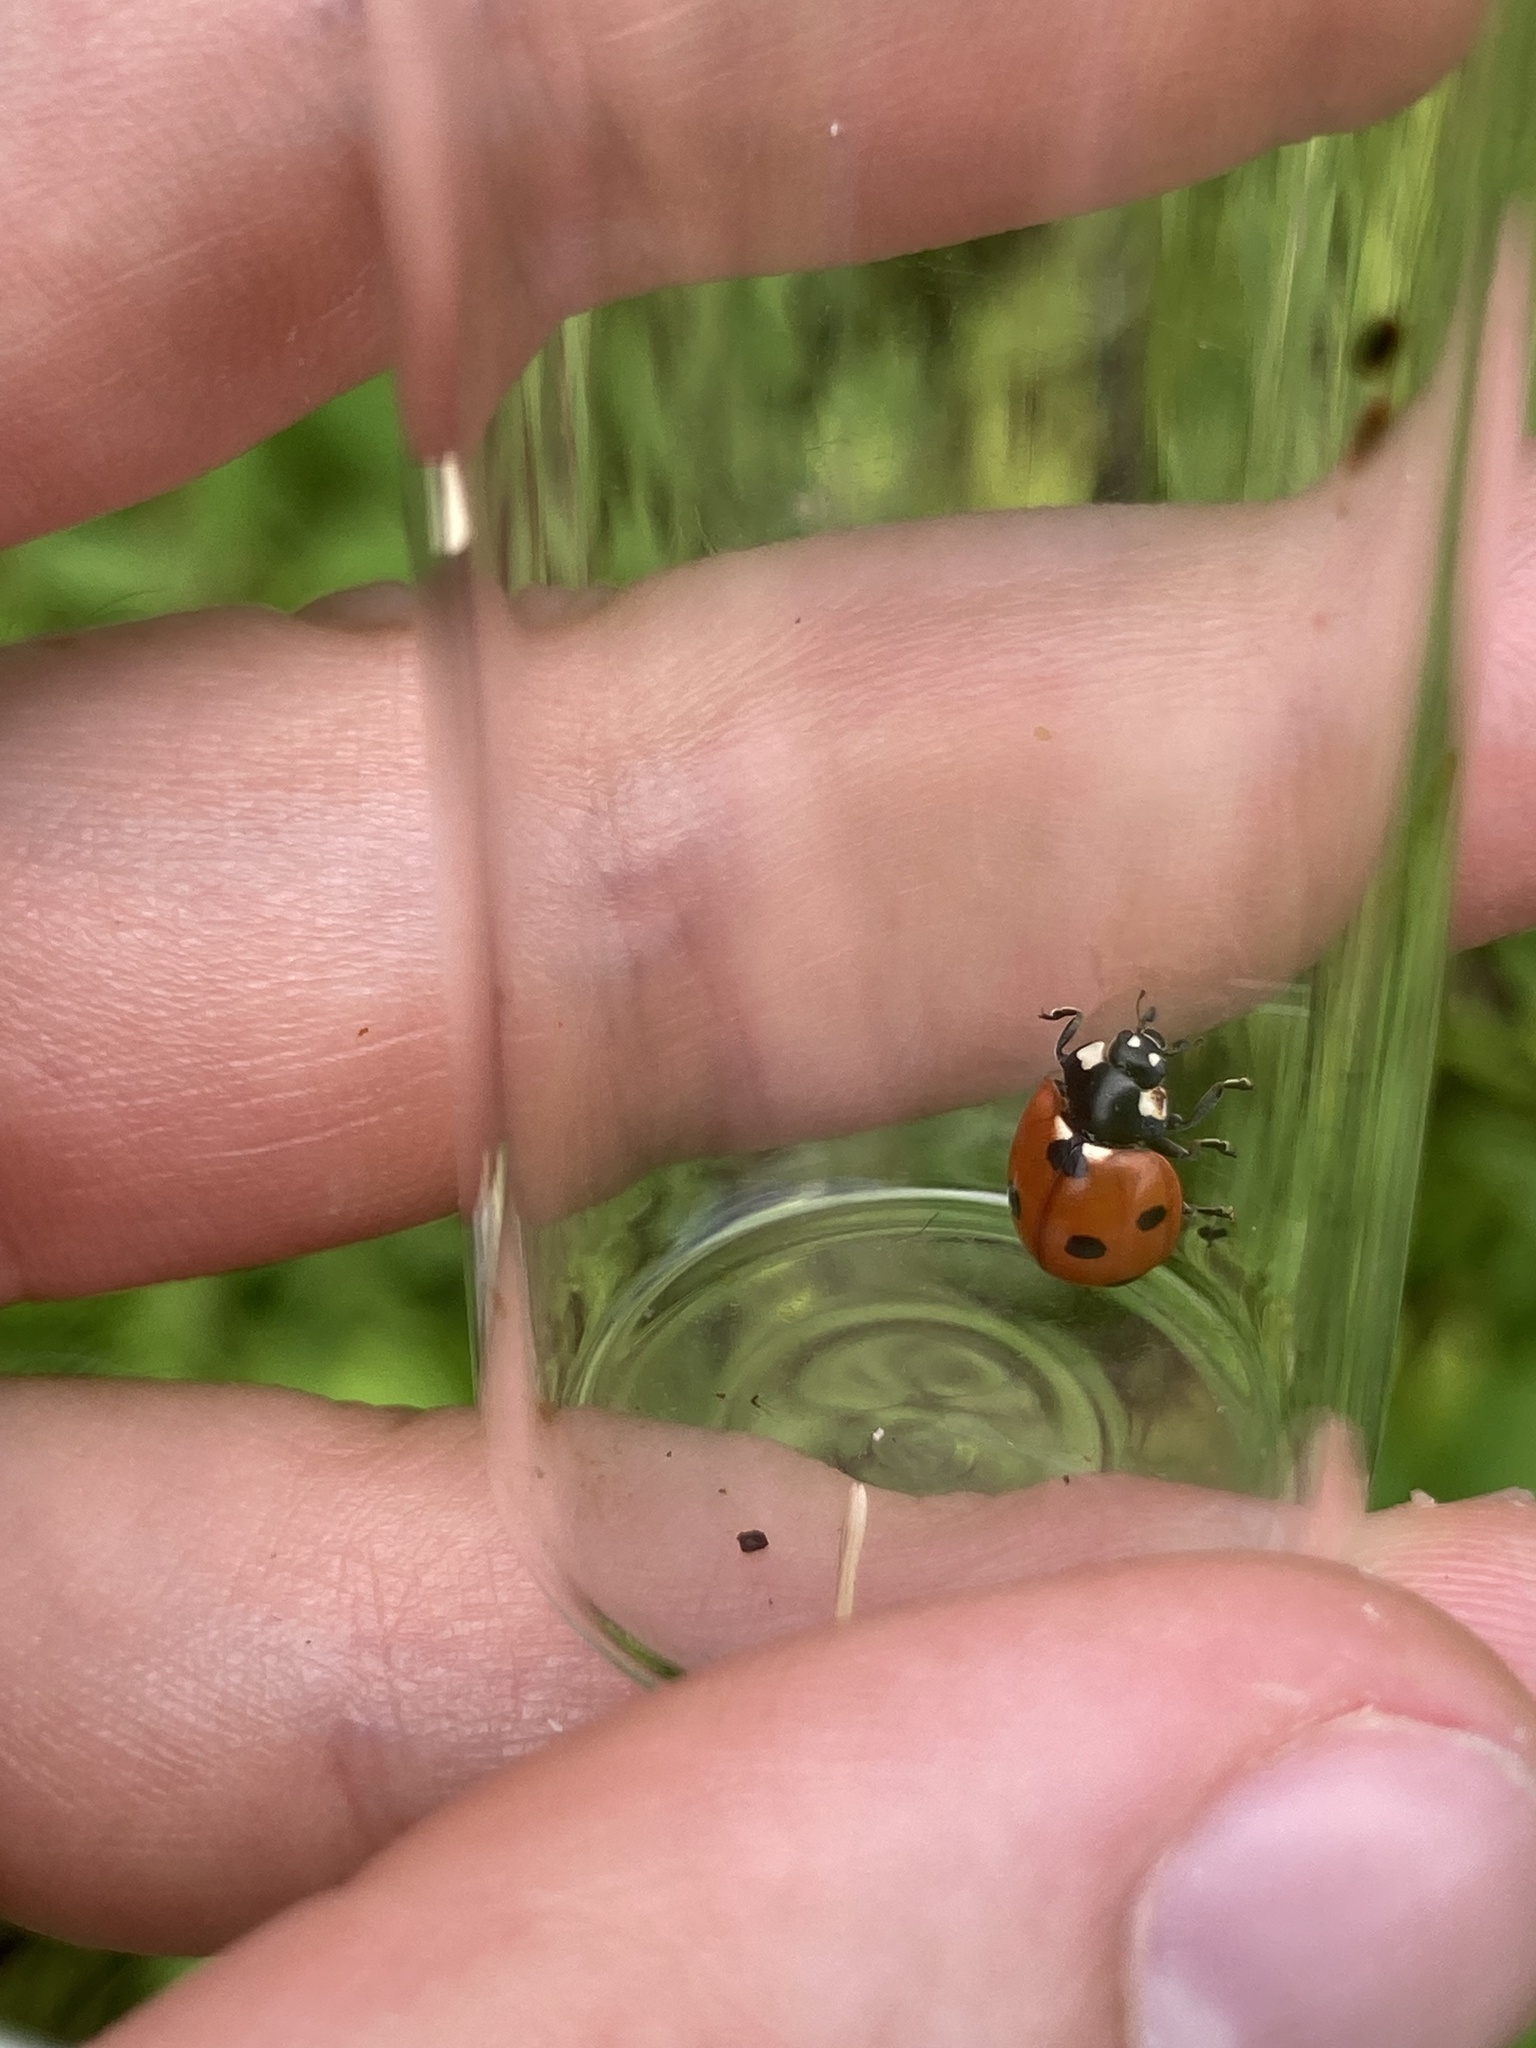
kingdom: Animalia
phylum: Arthropoda
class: Insecta
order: Coleoptera
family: Coccinellidae
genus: Coccinella
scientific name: Coccinella septempunctata
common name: Sevenspotted lady beetle
